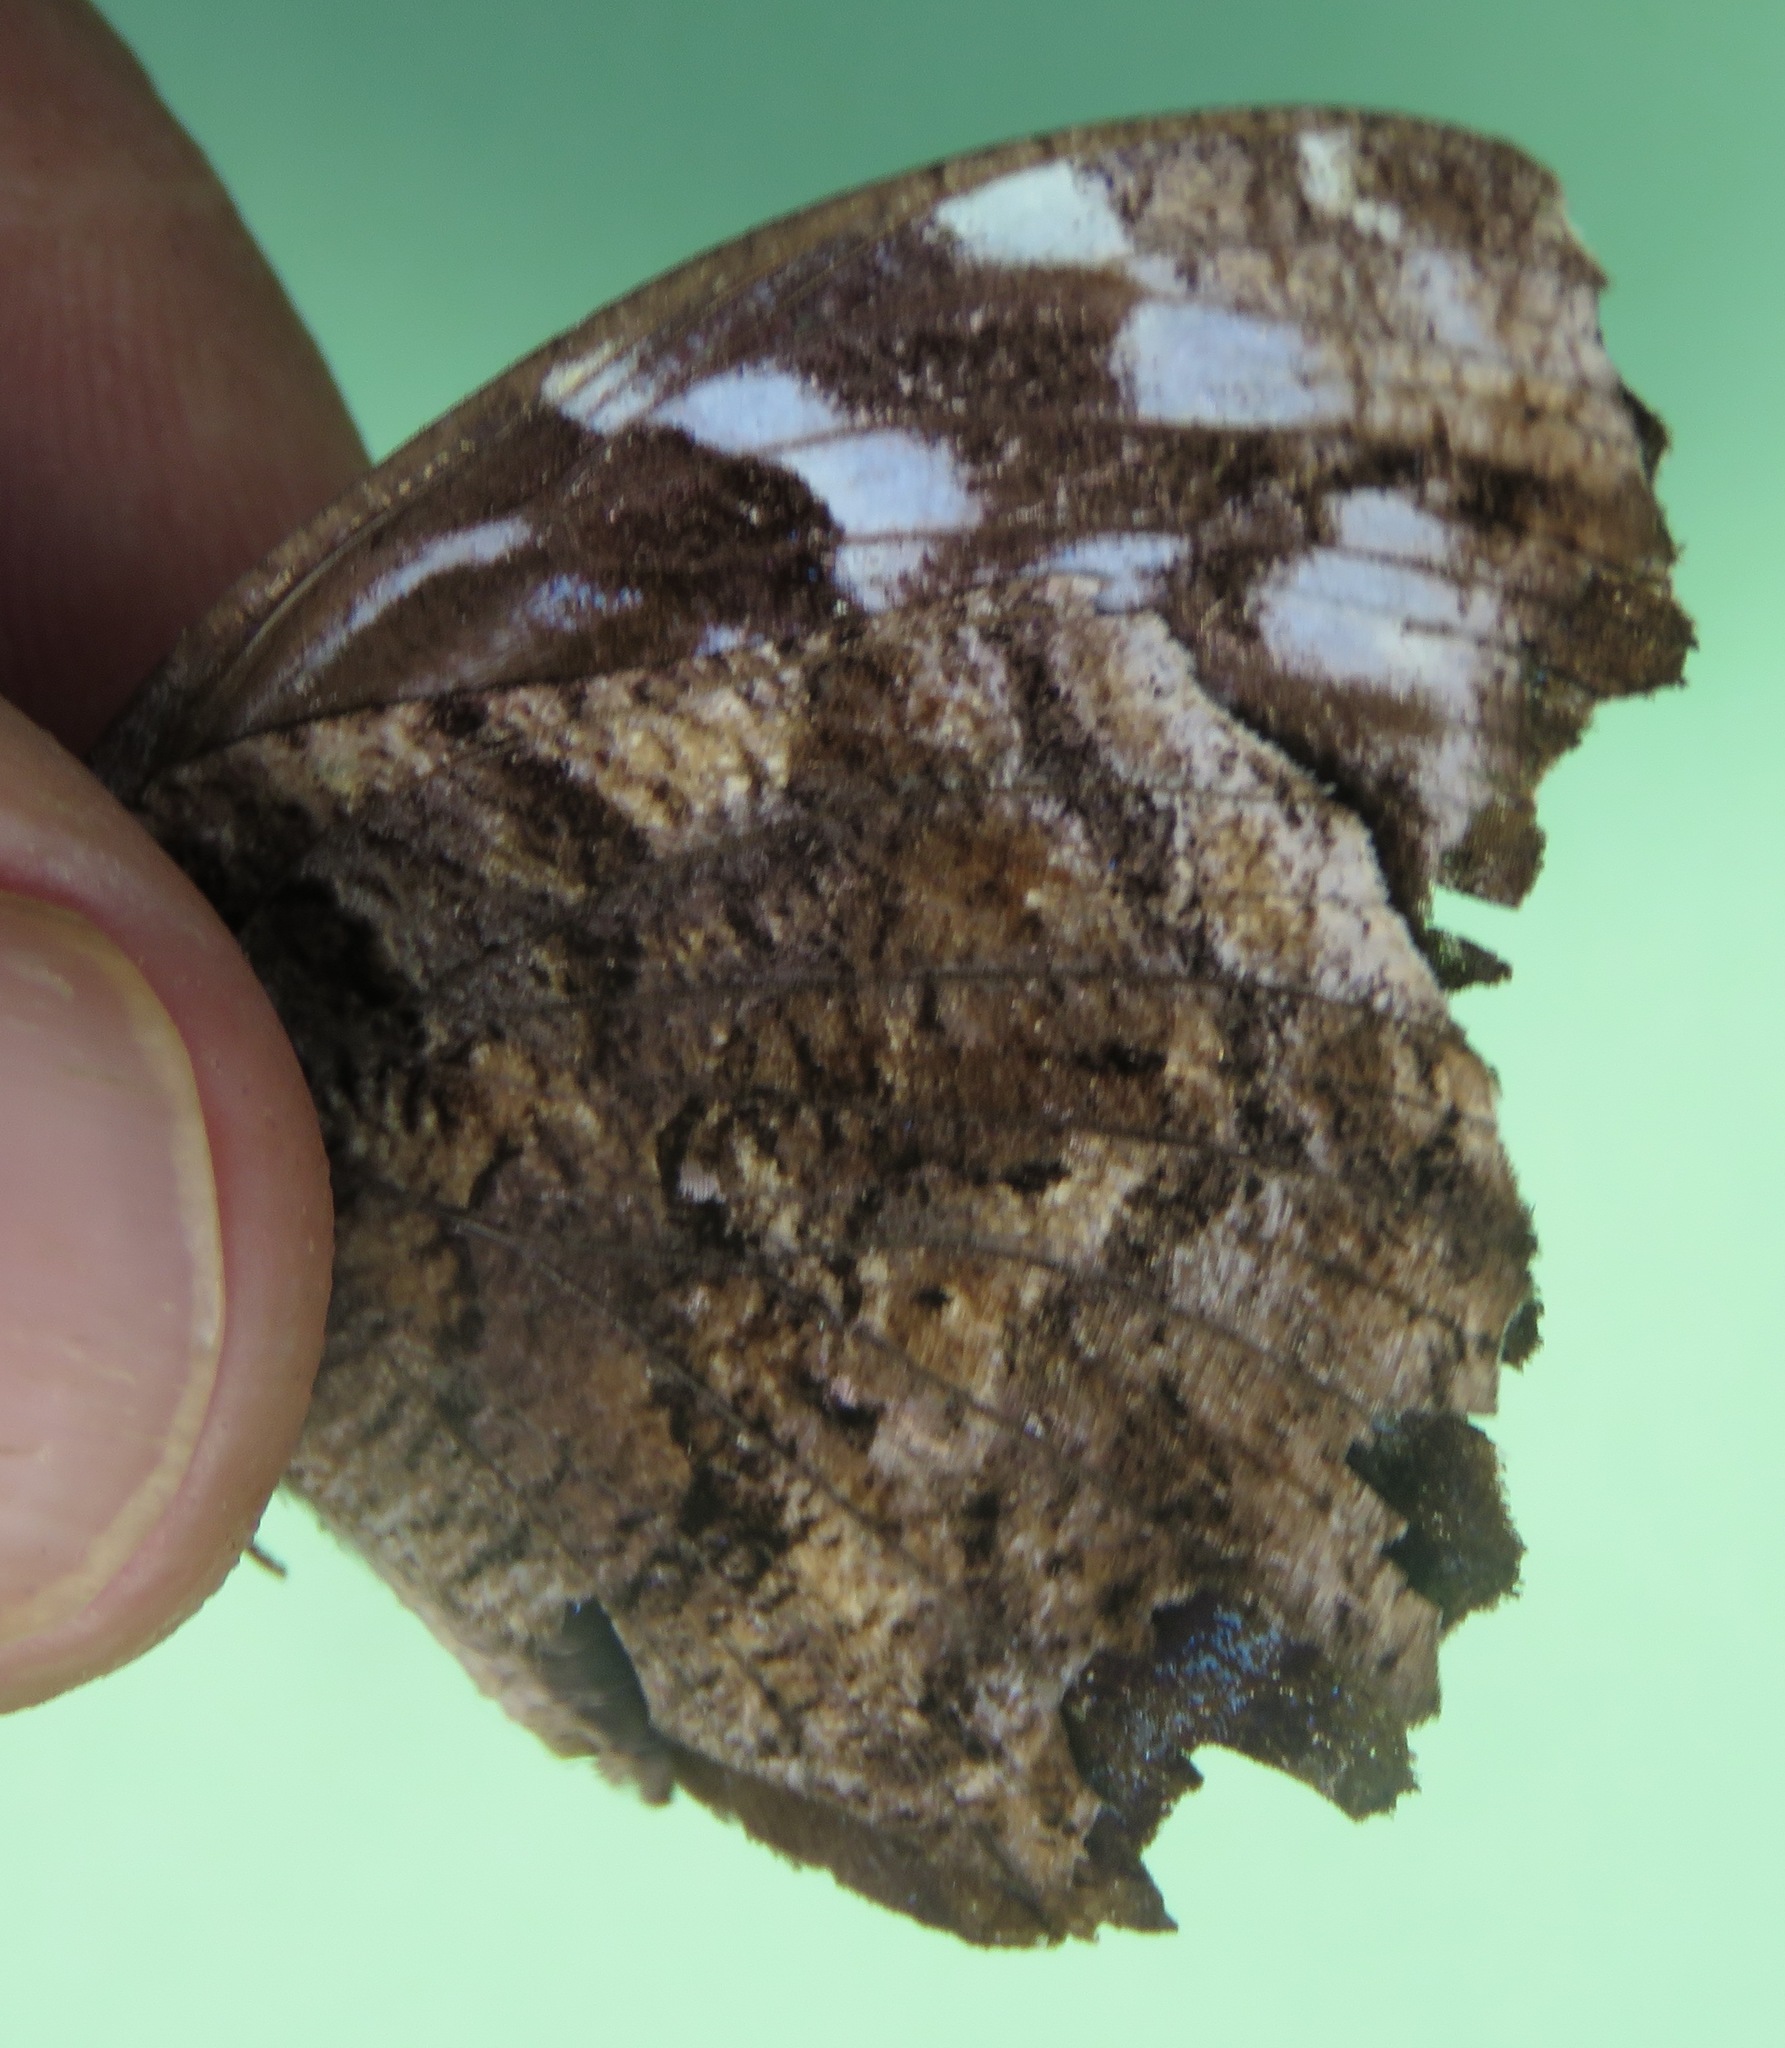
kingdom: Animalia
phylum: Arthropoda
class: Insecta
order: Lepidoptera
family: Nymphalidae
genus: Myscelia
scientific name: Myscelia ethusa
